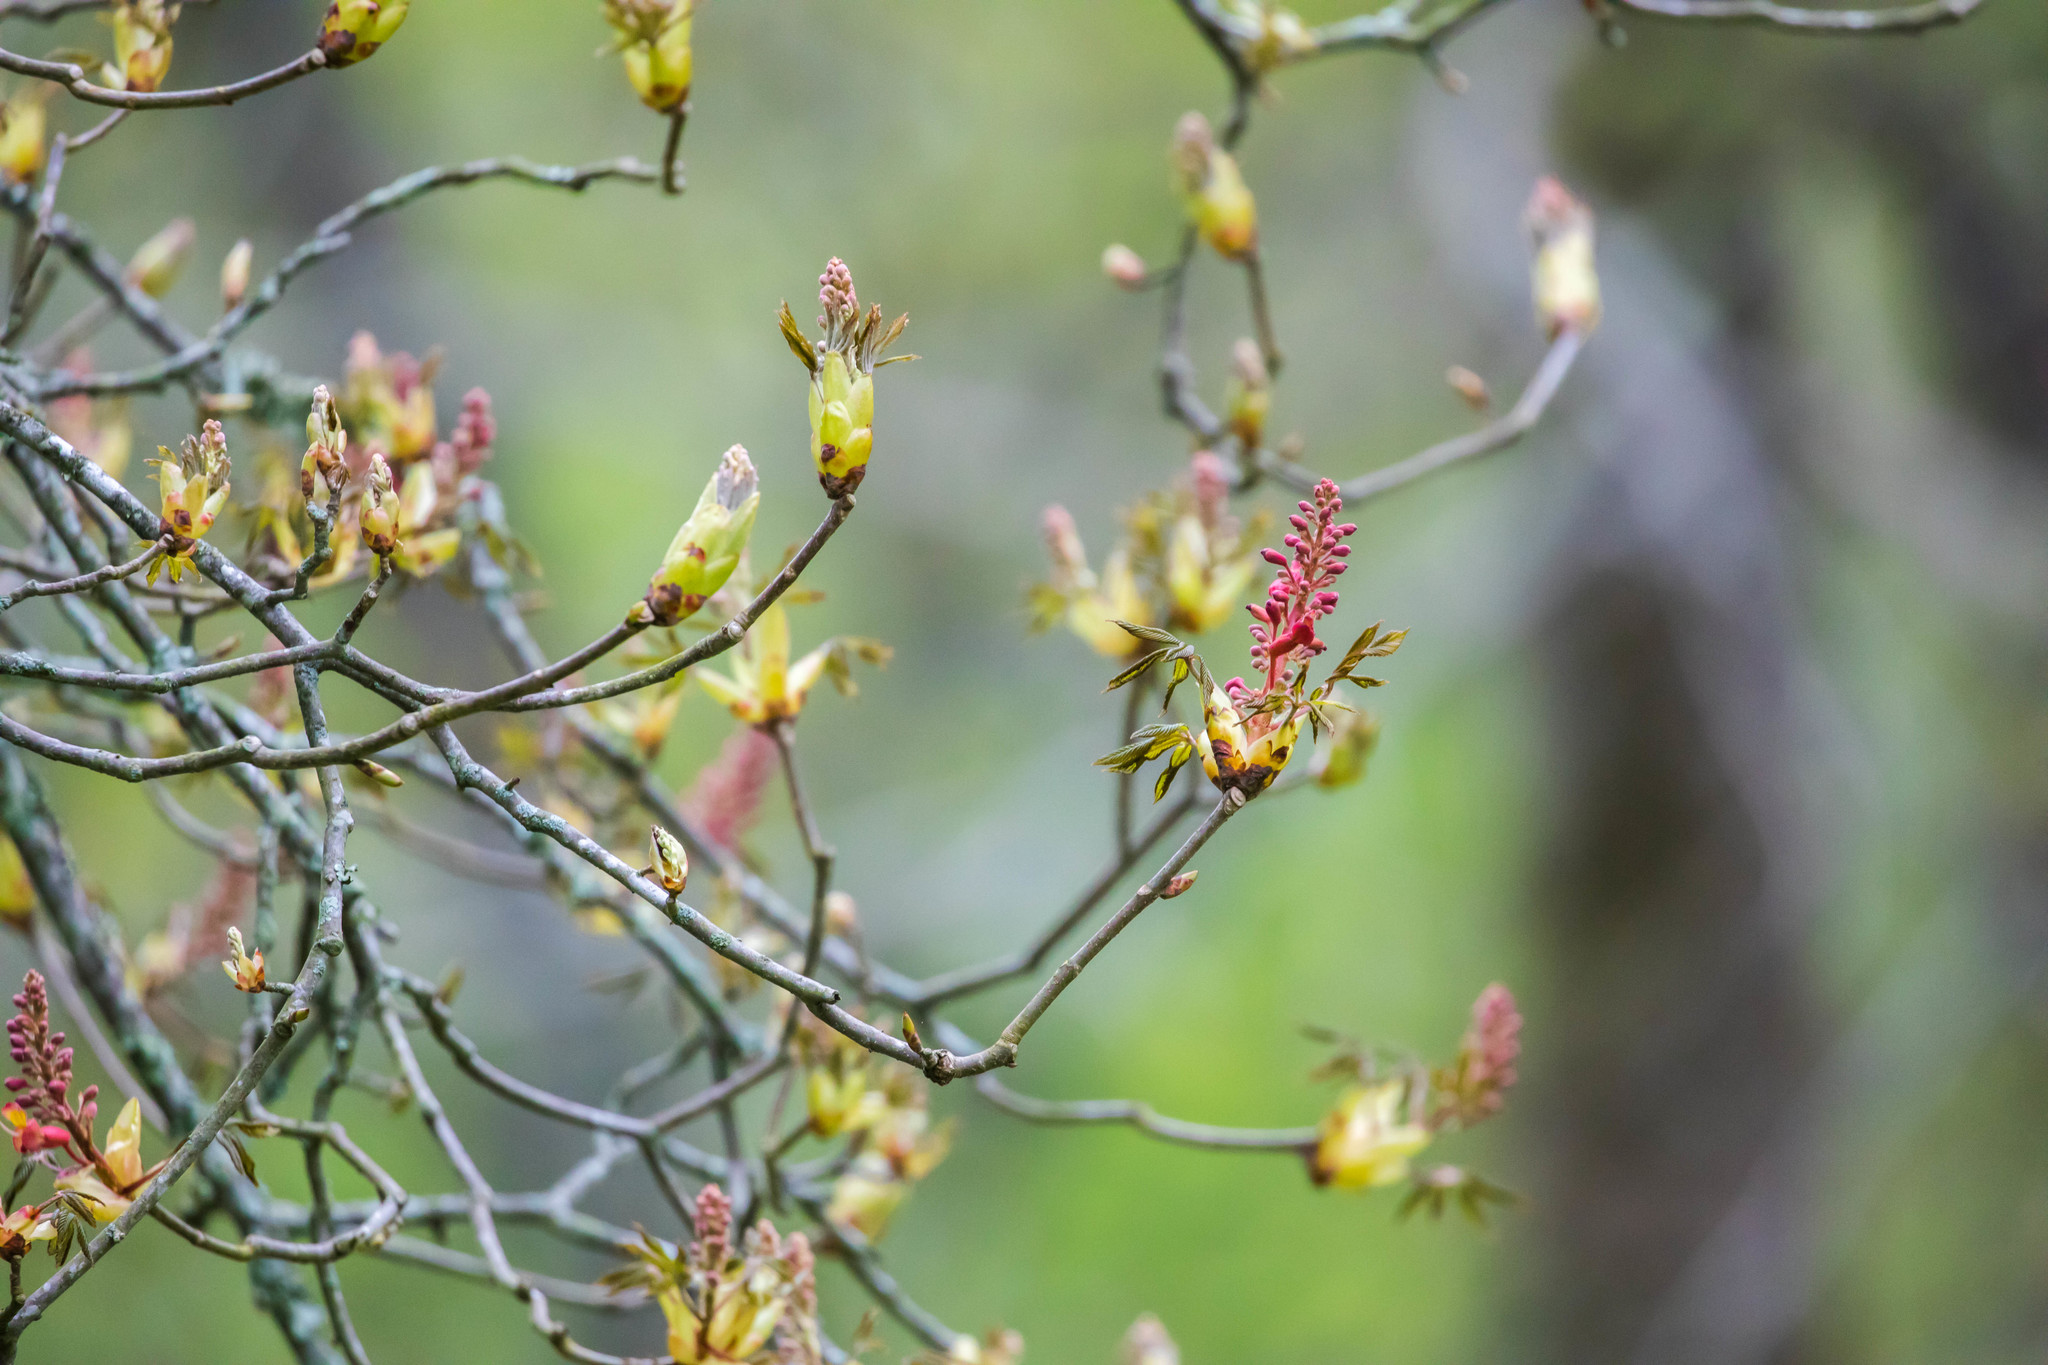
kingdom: Plantae
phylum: Tracheophyta
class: Magnoliopsida
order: Sapindales
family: Sapindaceae
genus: Aesculus
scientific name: Aesculus pavia
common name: Red buckeye
